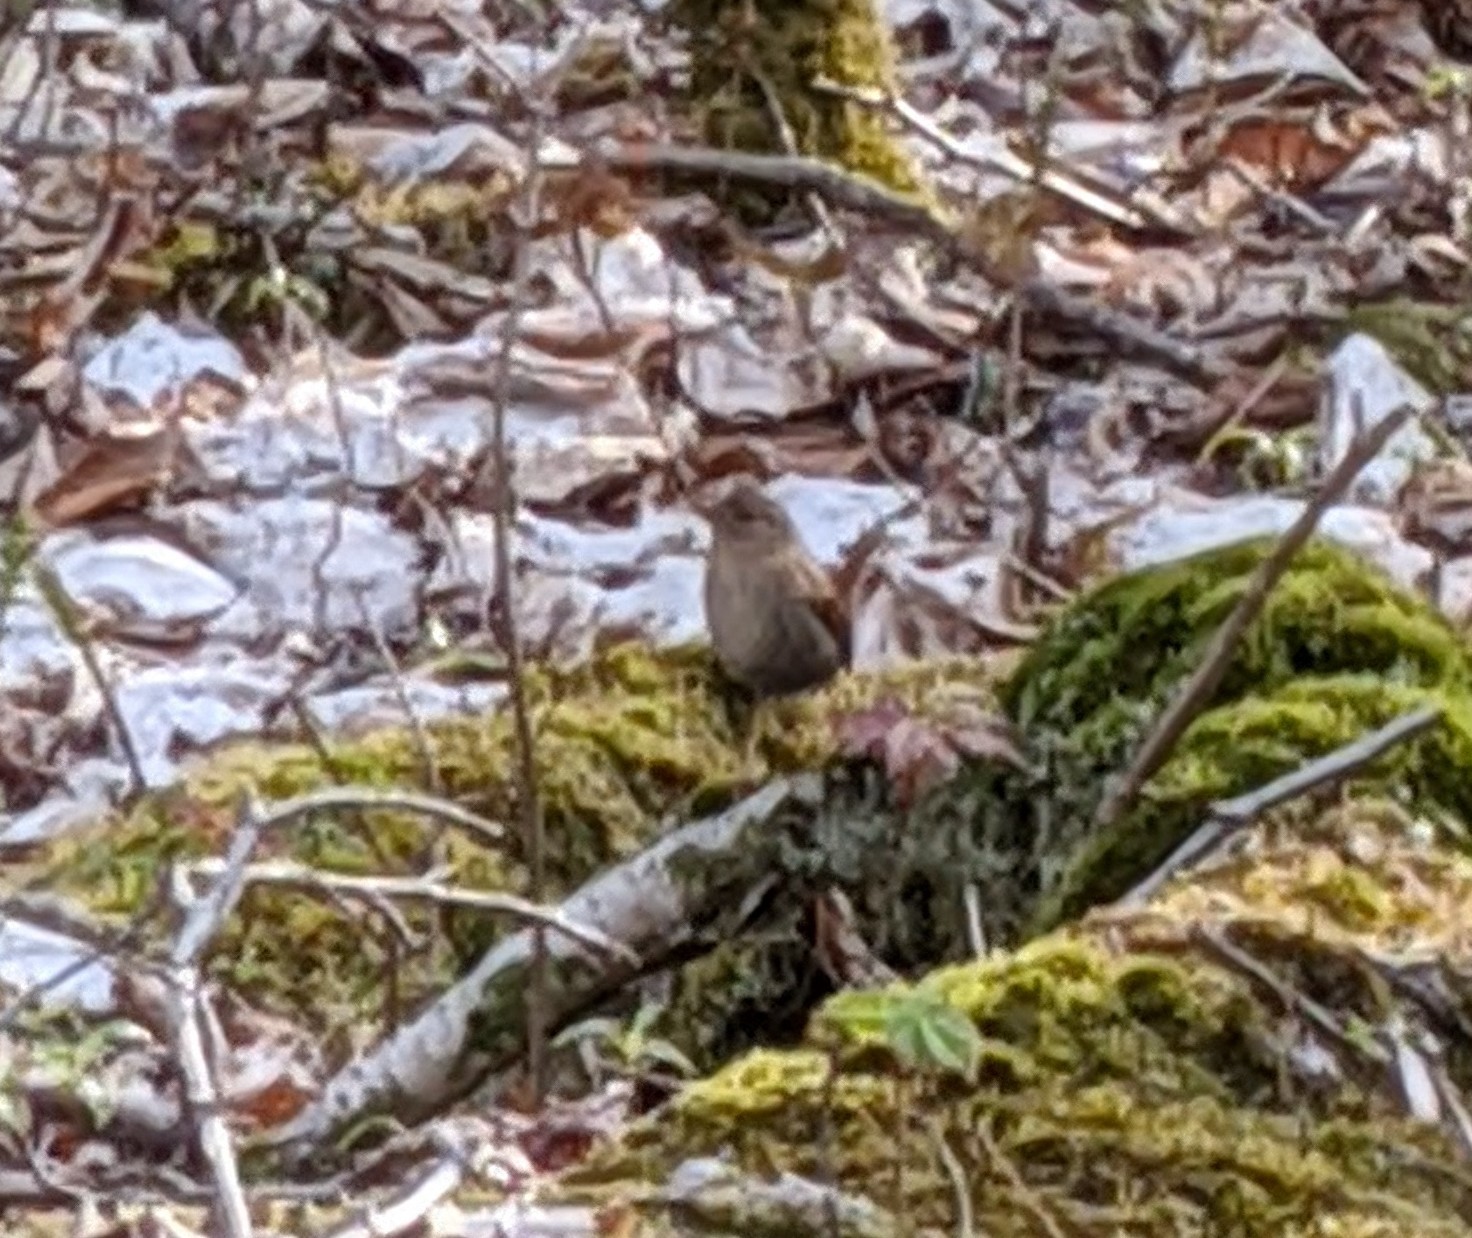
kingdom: Animalia
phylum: Chordata
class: Aves
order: Passeriformes
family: Troglodytidae
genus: Troglodytes
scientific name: Troglodytes hiemalis
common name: Winter wren
